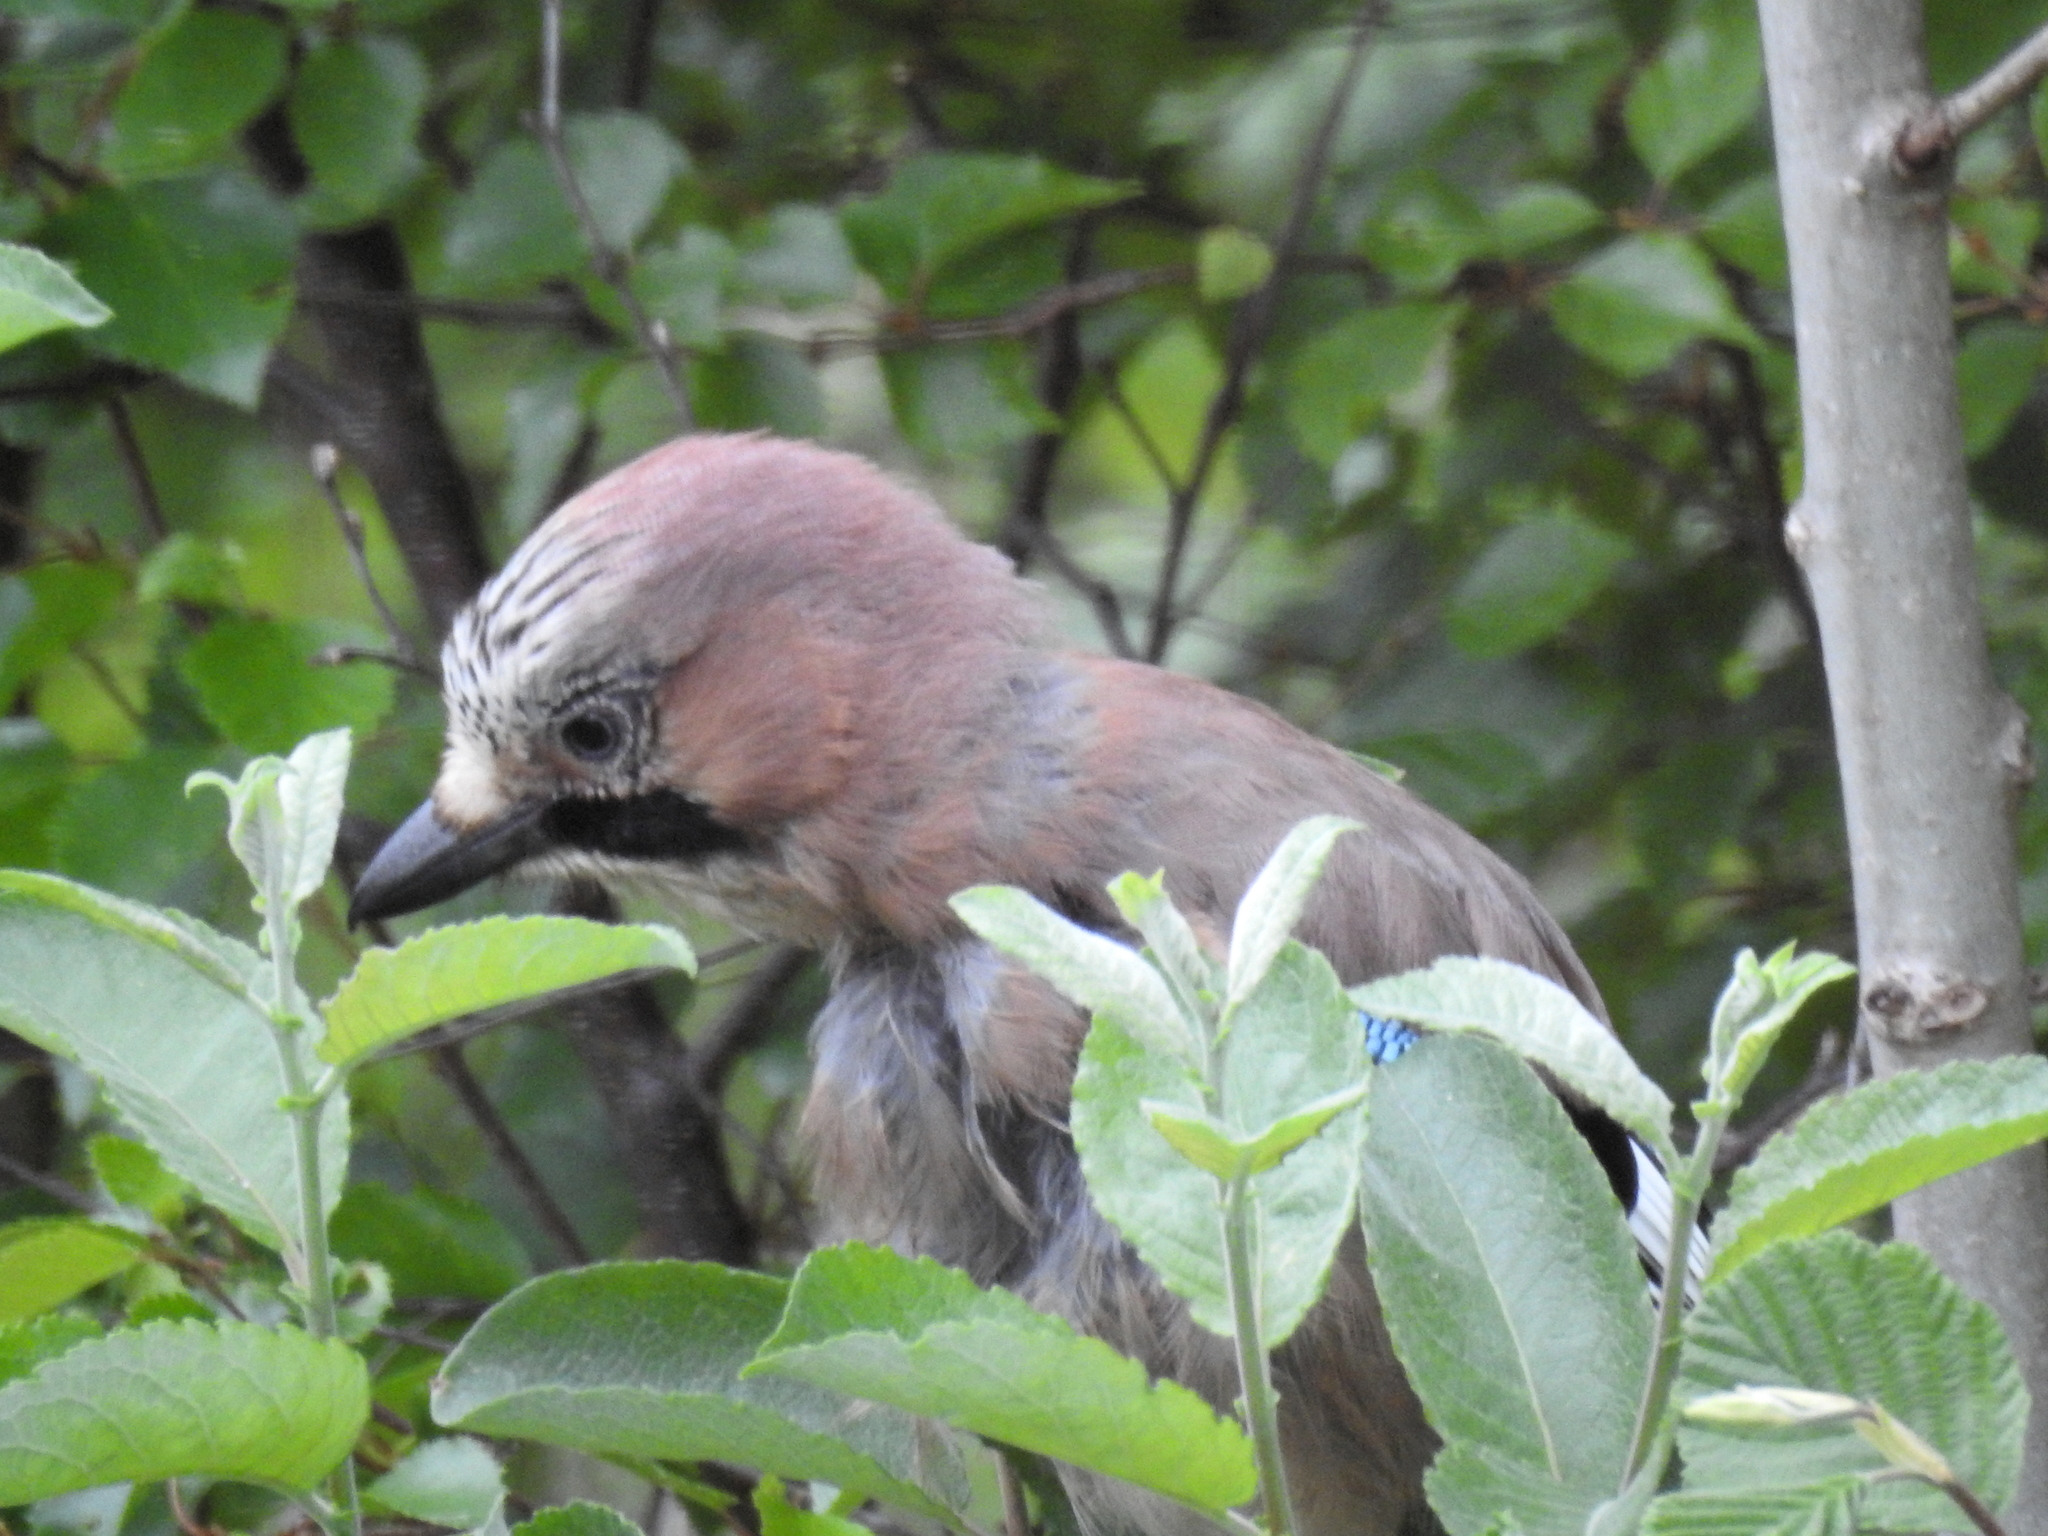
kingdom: Animalia
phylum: Chordata
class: Aves
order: Passeriformes
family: Corvidae
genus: Garrulus
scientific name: Garrulus glandarius
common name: Eurasian jay
